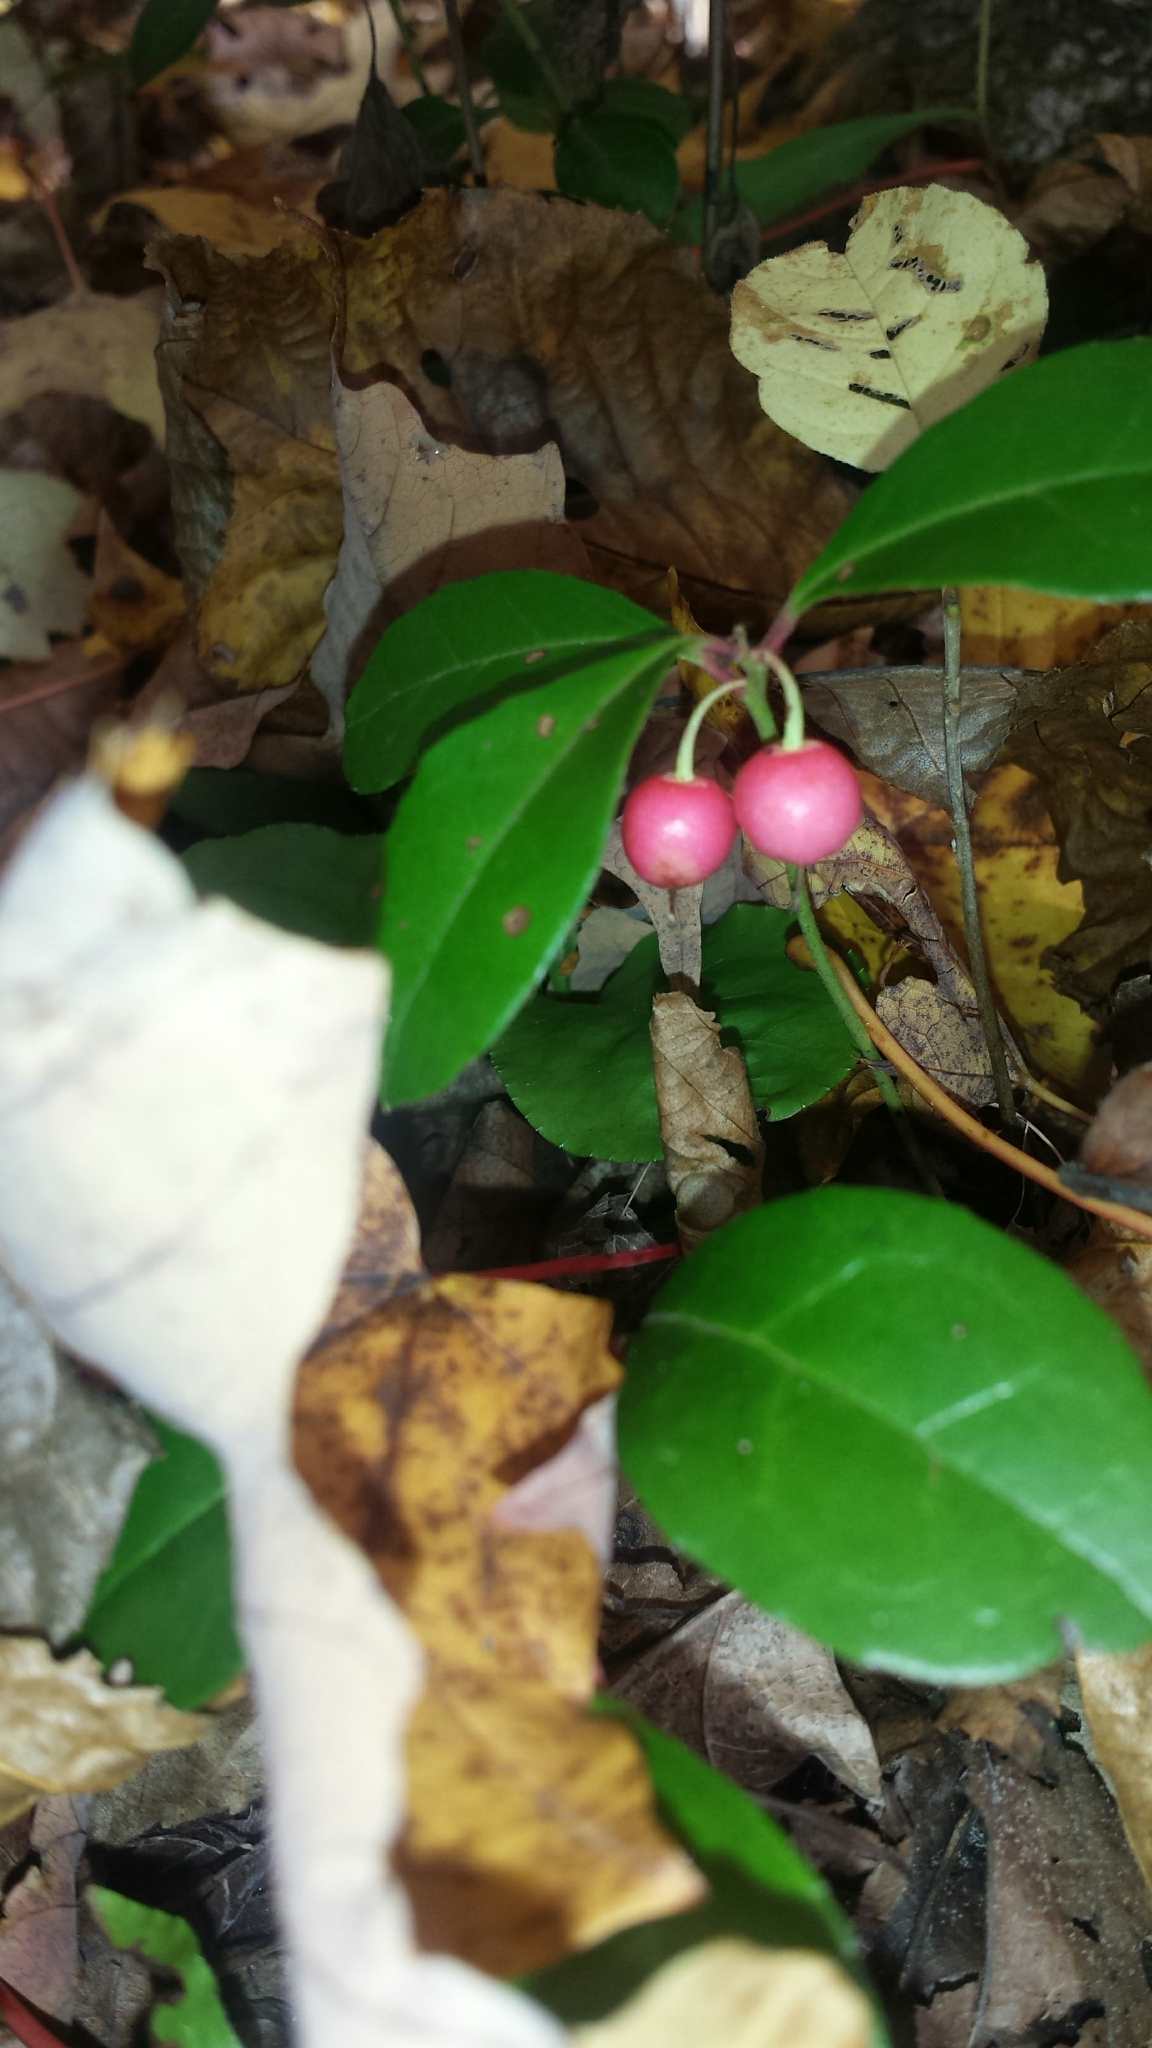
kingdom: Plantae
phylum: Tracheophyta
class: Magnoliopsida
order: Ericales
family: Ericaceae
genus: Gaultheria
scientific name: Gaultheria procumbens
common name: Checkerberry
